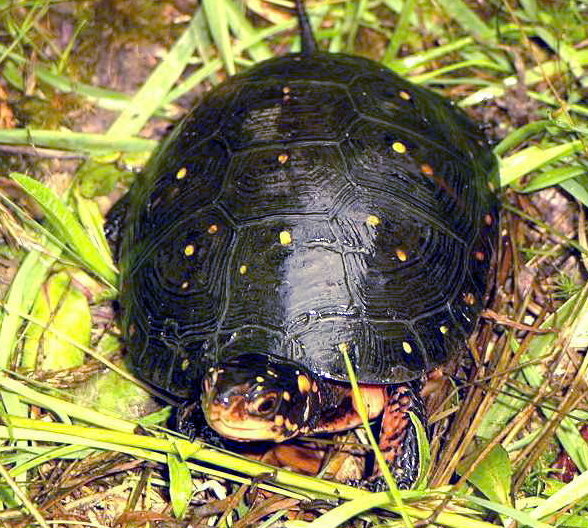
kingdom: Animalia
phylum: Chordata
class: Testudines
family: Emydidae
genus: Clemmys
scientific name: Clemmys guttata
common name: Spotted turtle
